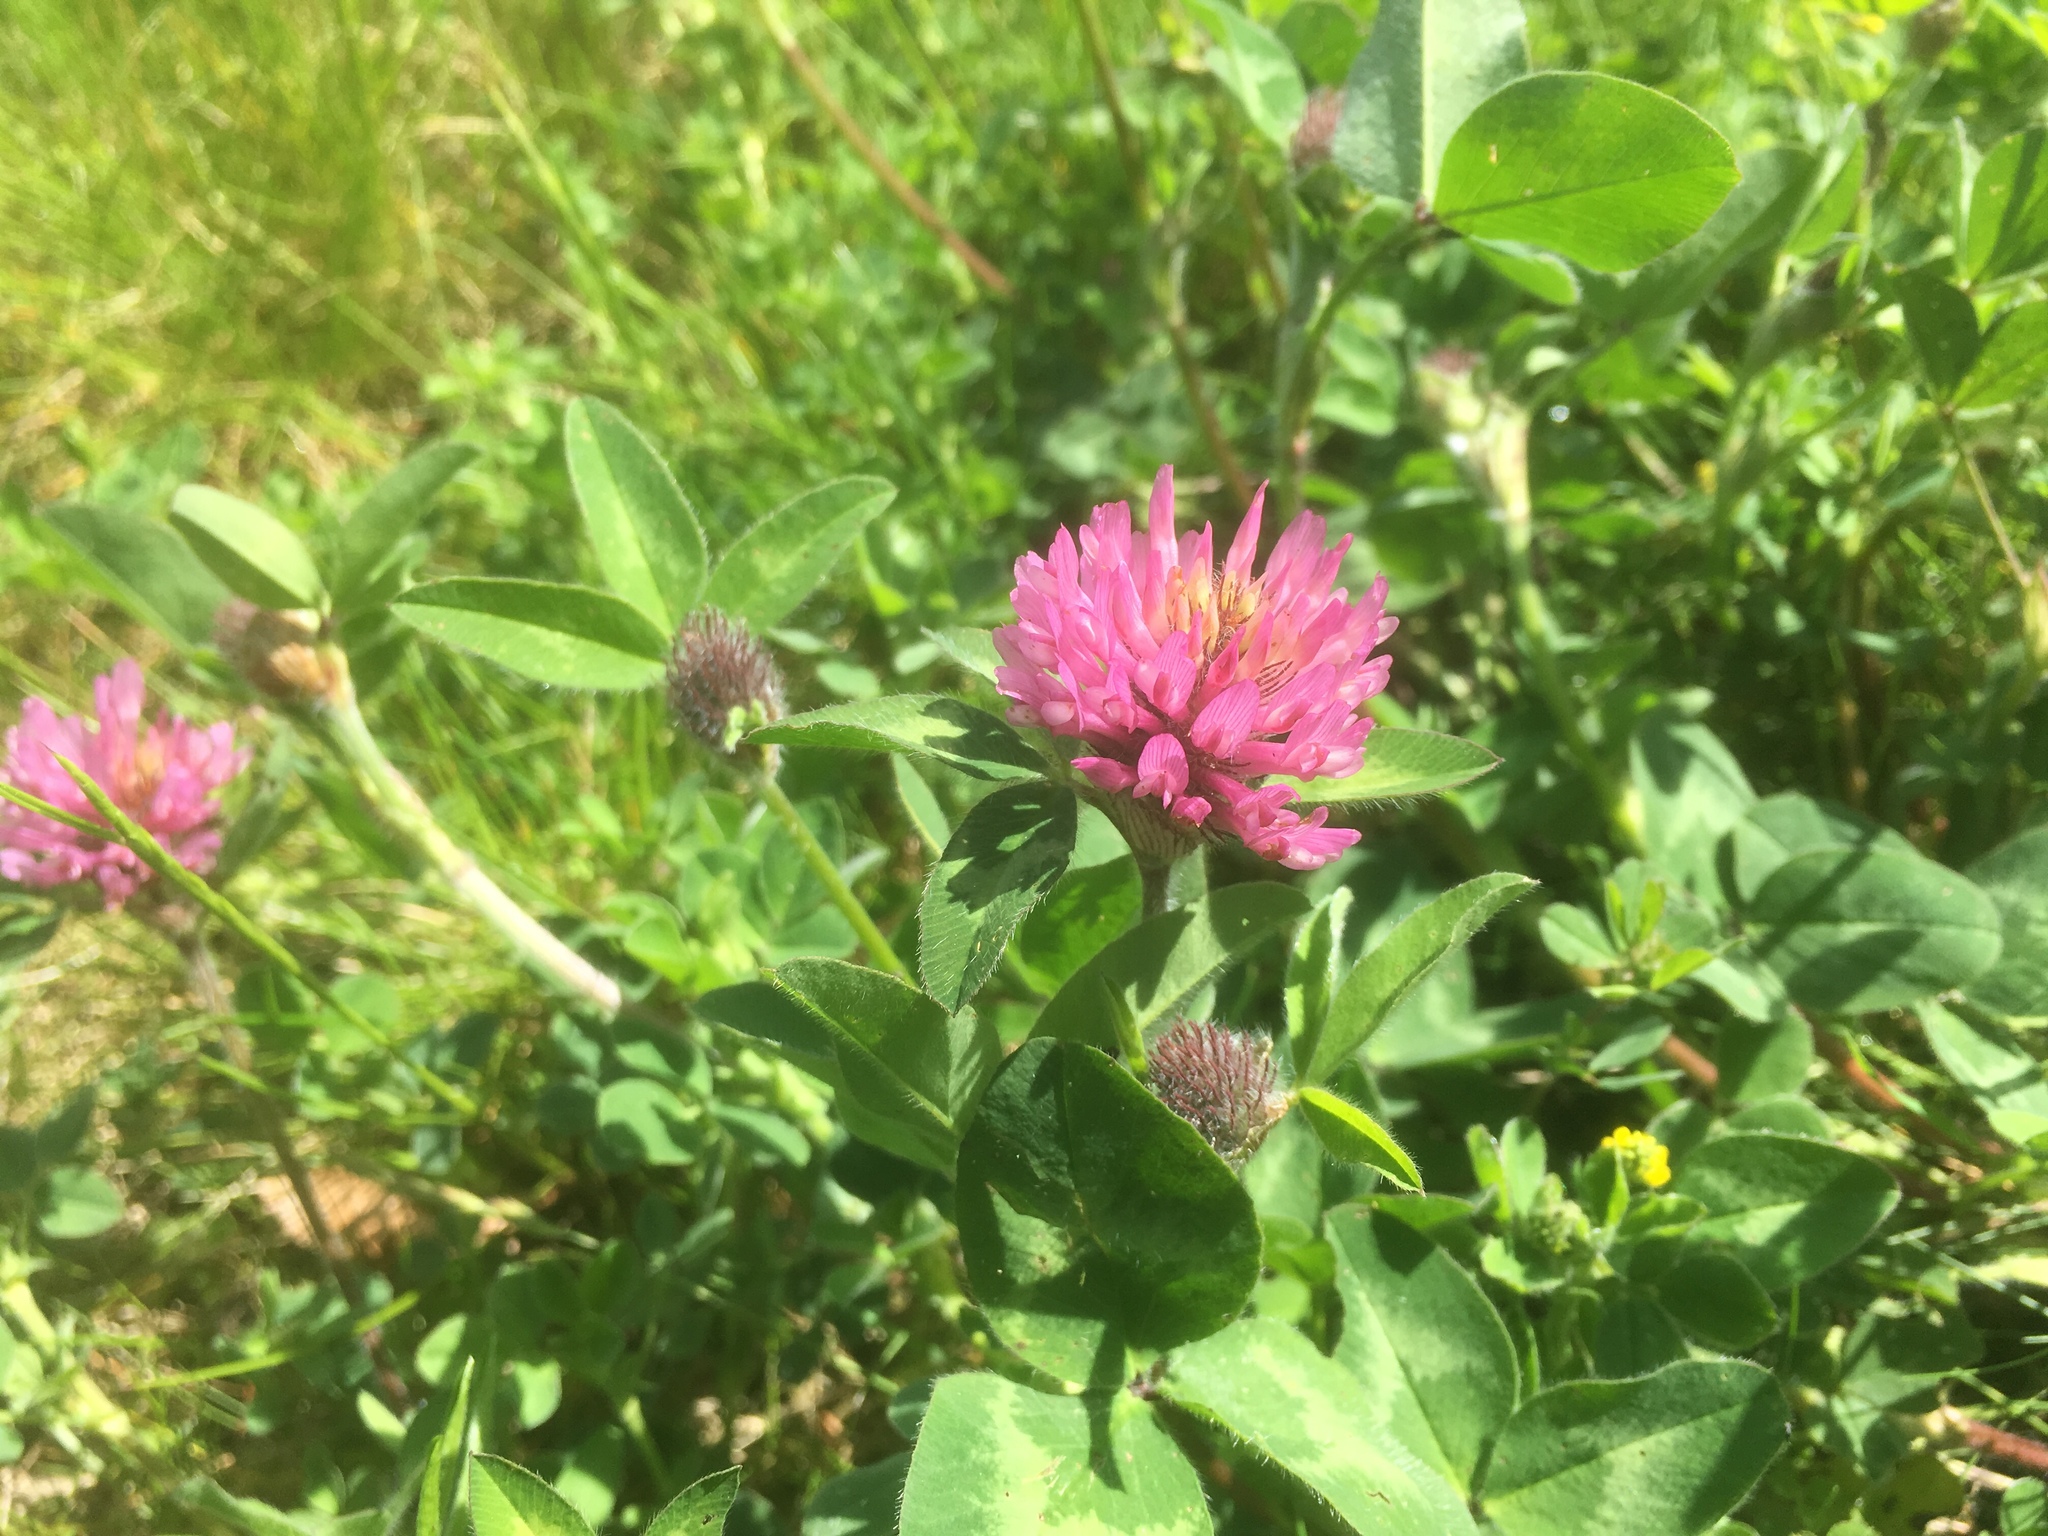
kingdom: Plantae
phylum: Tracheophyta
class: Magnoliopsida
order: Fabales
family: Fabaceae
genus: Trifolium
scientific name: Trifolium pratense
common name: Red clover
